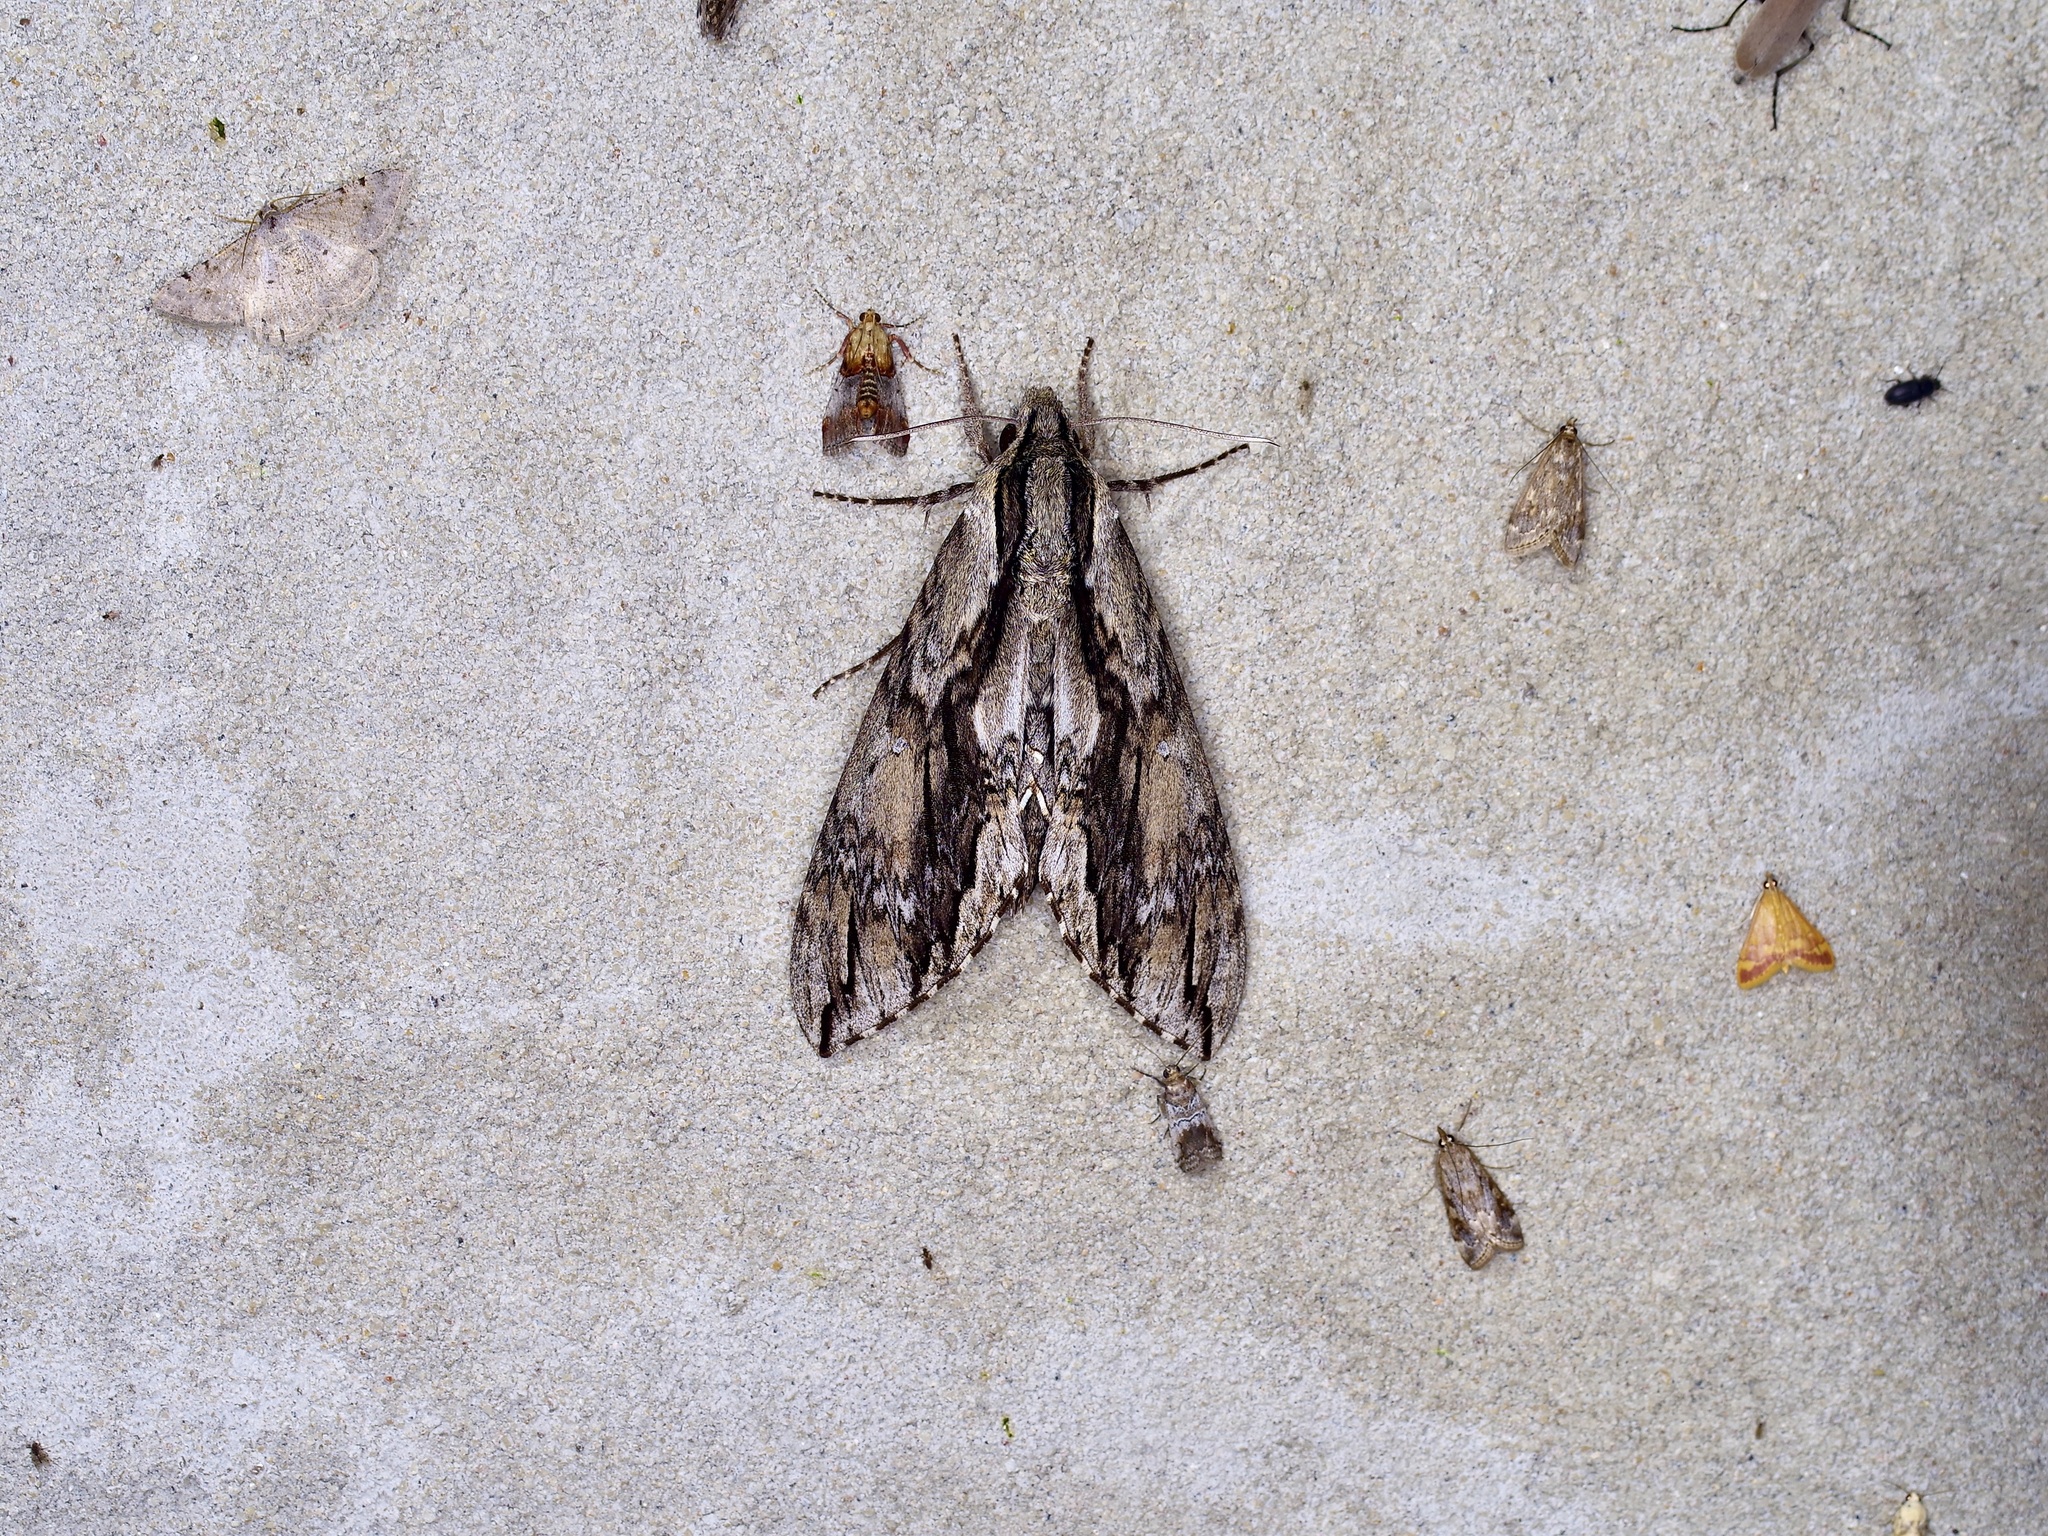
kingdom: Animalia
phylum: Arthropoda
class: Insecta
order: Lepidoptera
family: Sphingidae
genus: Lintneria
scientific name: Lintneria istar
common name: Istar sphinx
